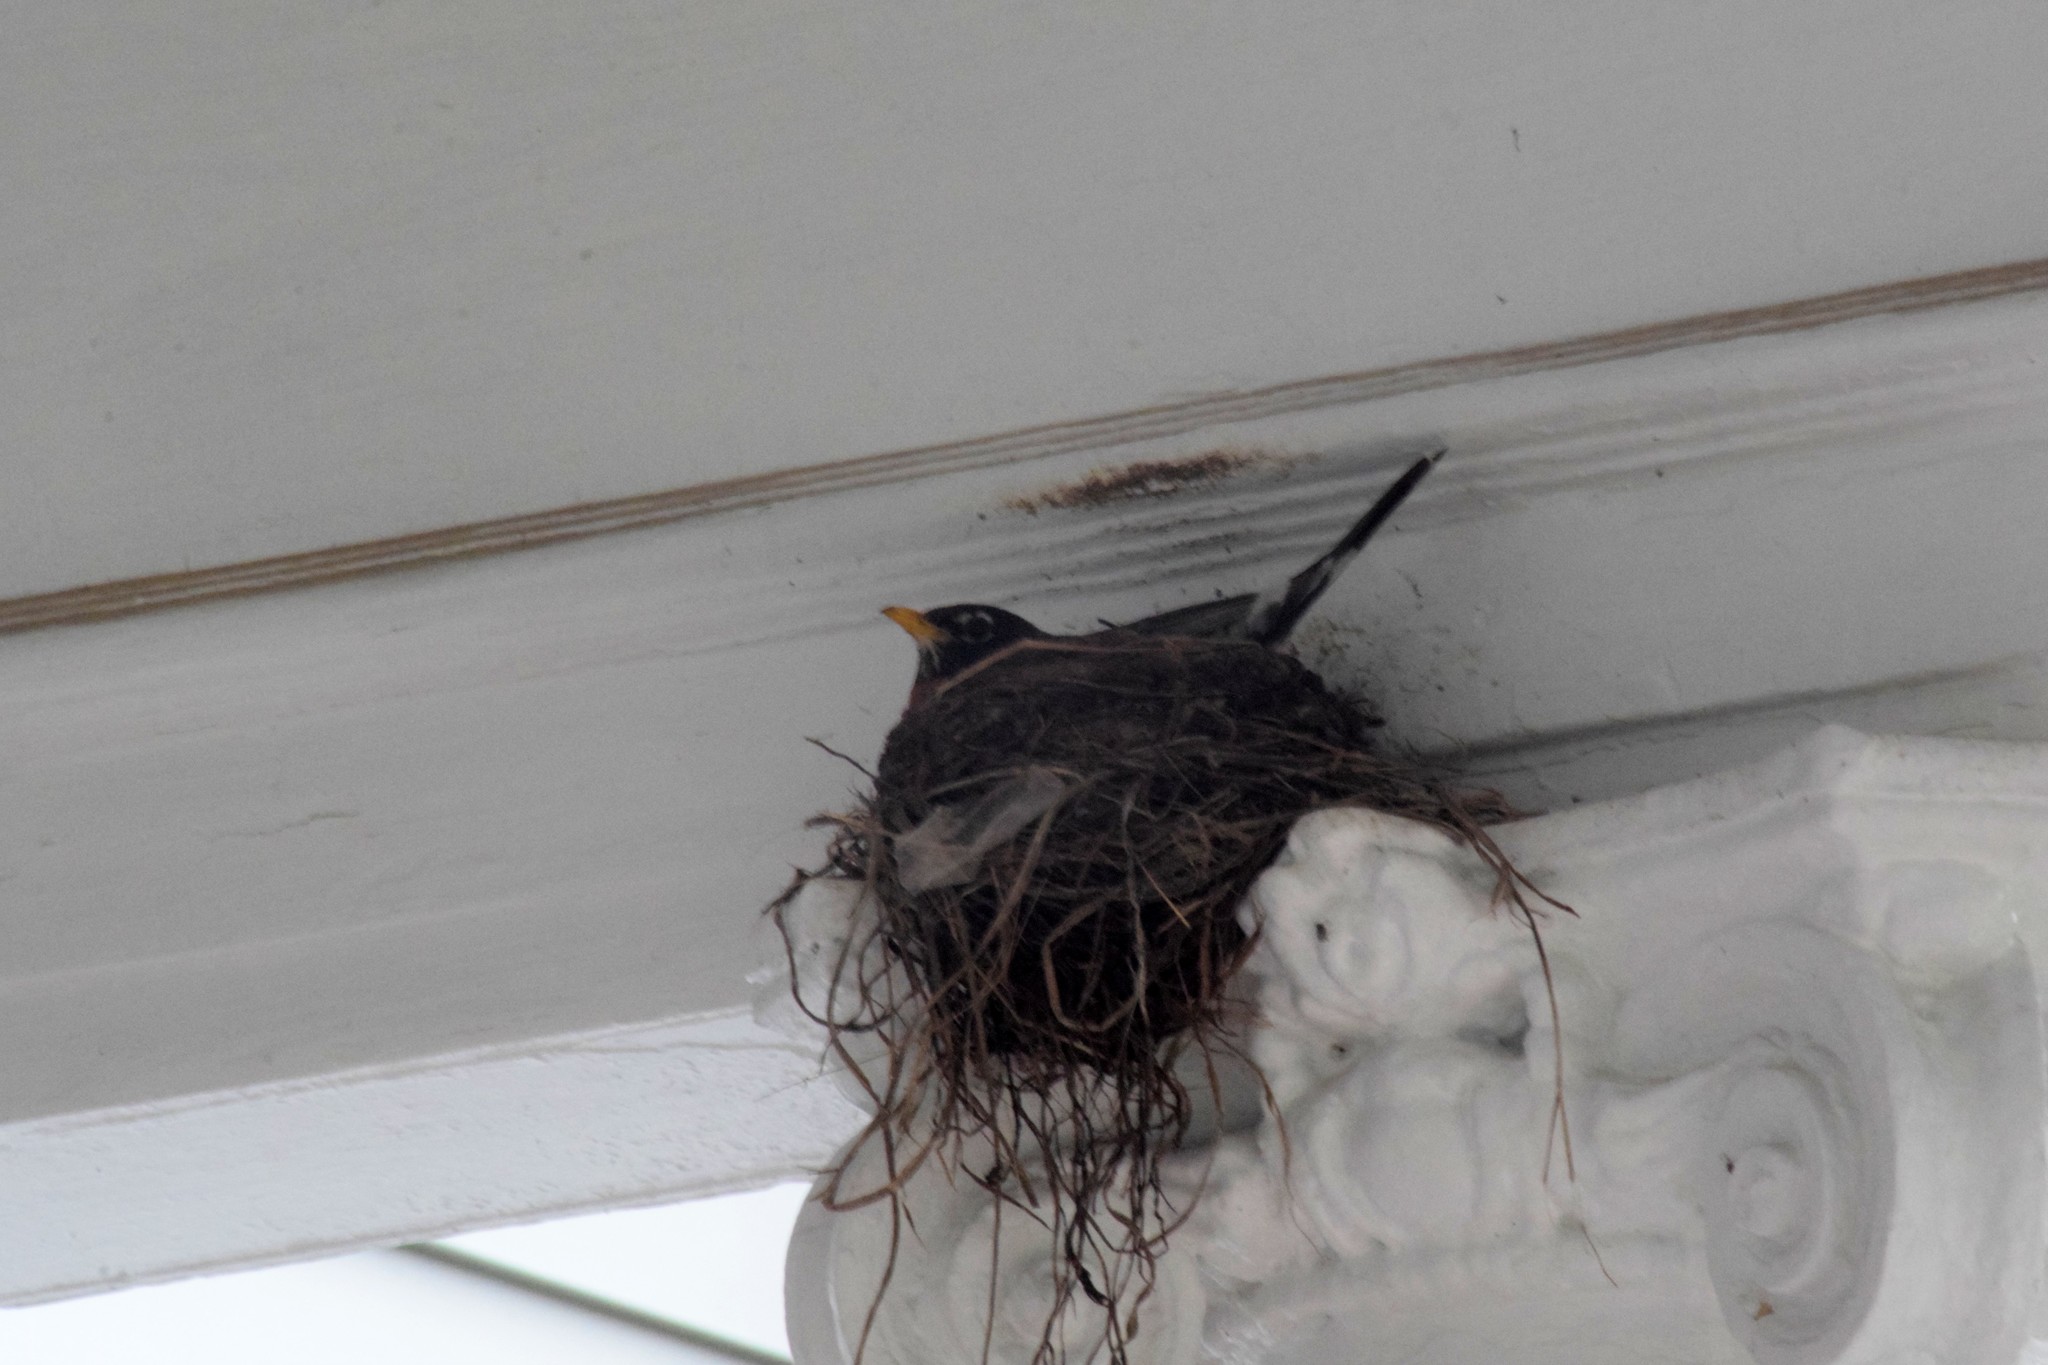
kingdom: Animalia
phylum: Chordata
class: Aves
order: Passeriformes
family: Turdidae
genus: Turdus
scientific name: Turdus migratorius
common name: American robin
